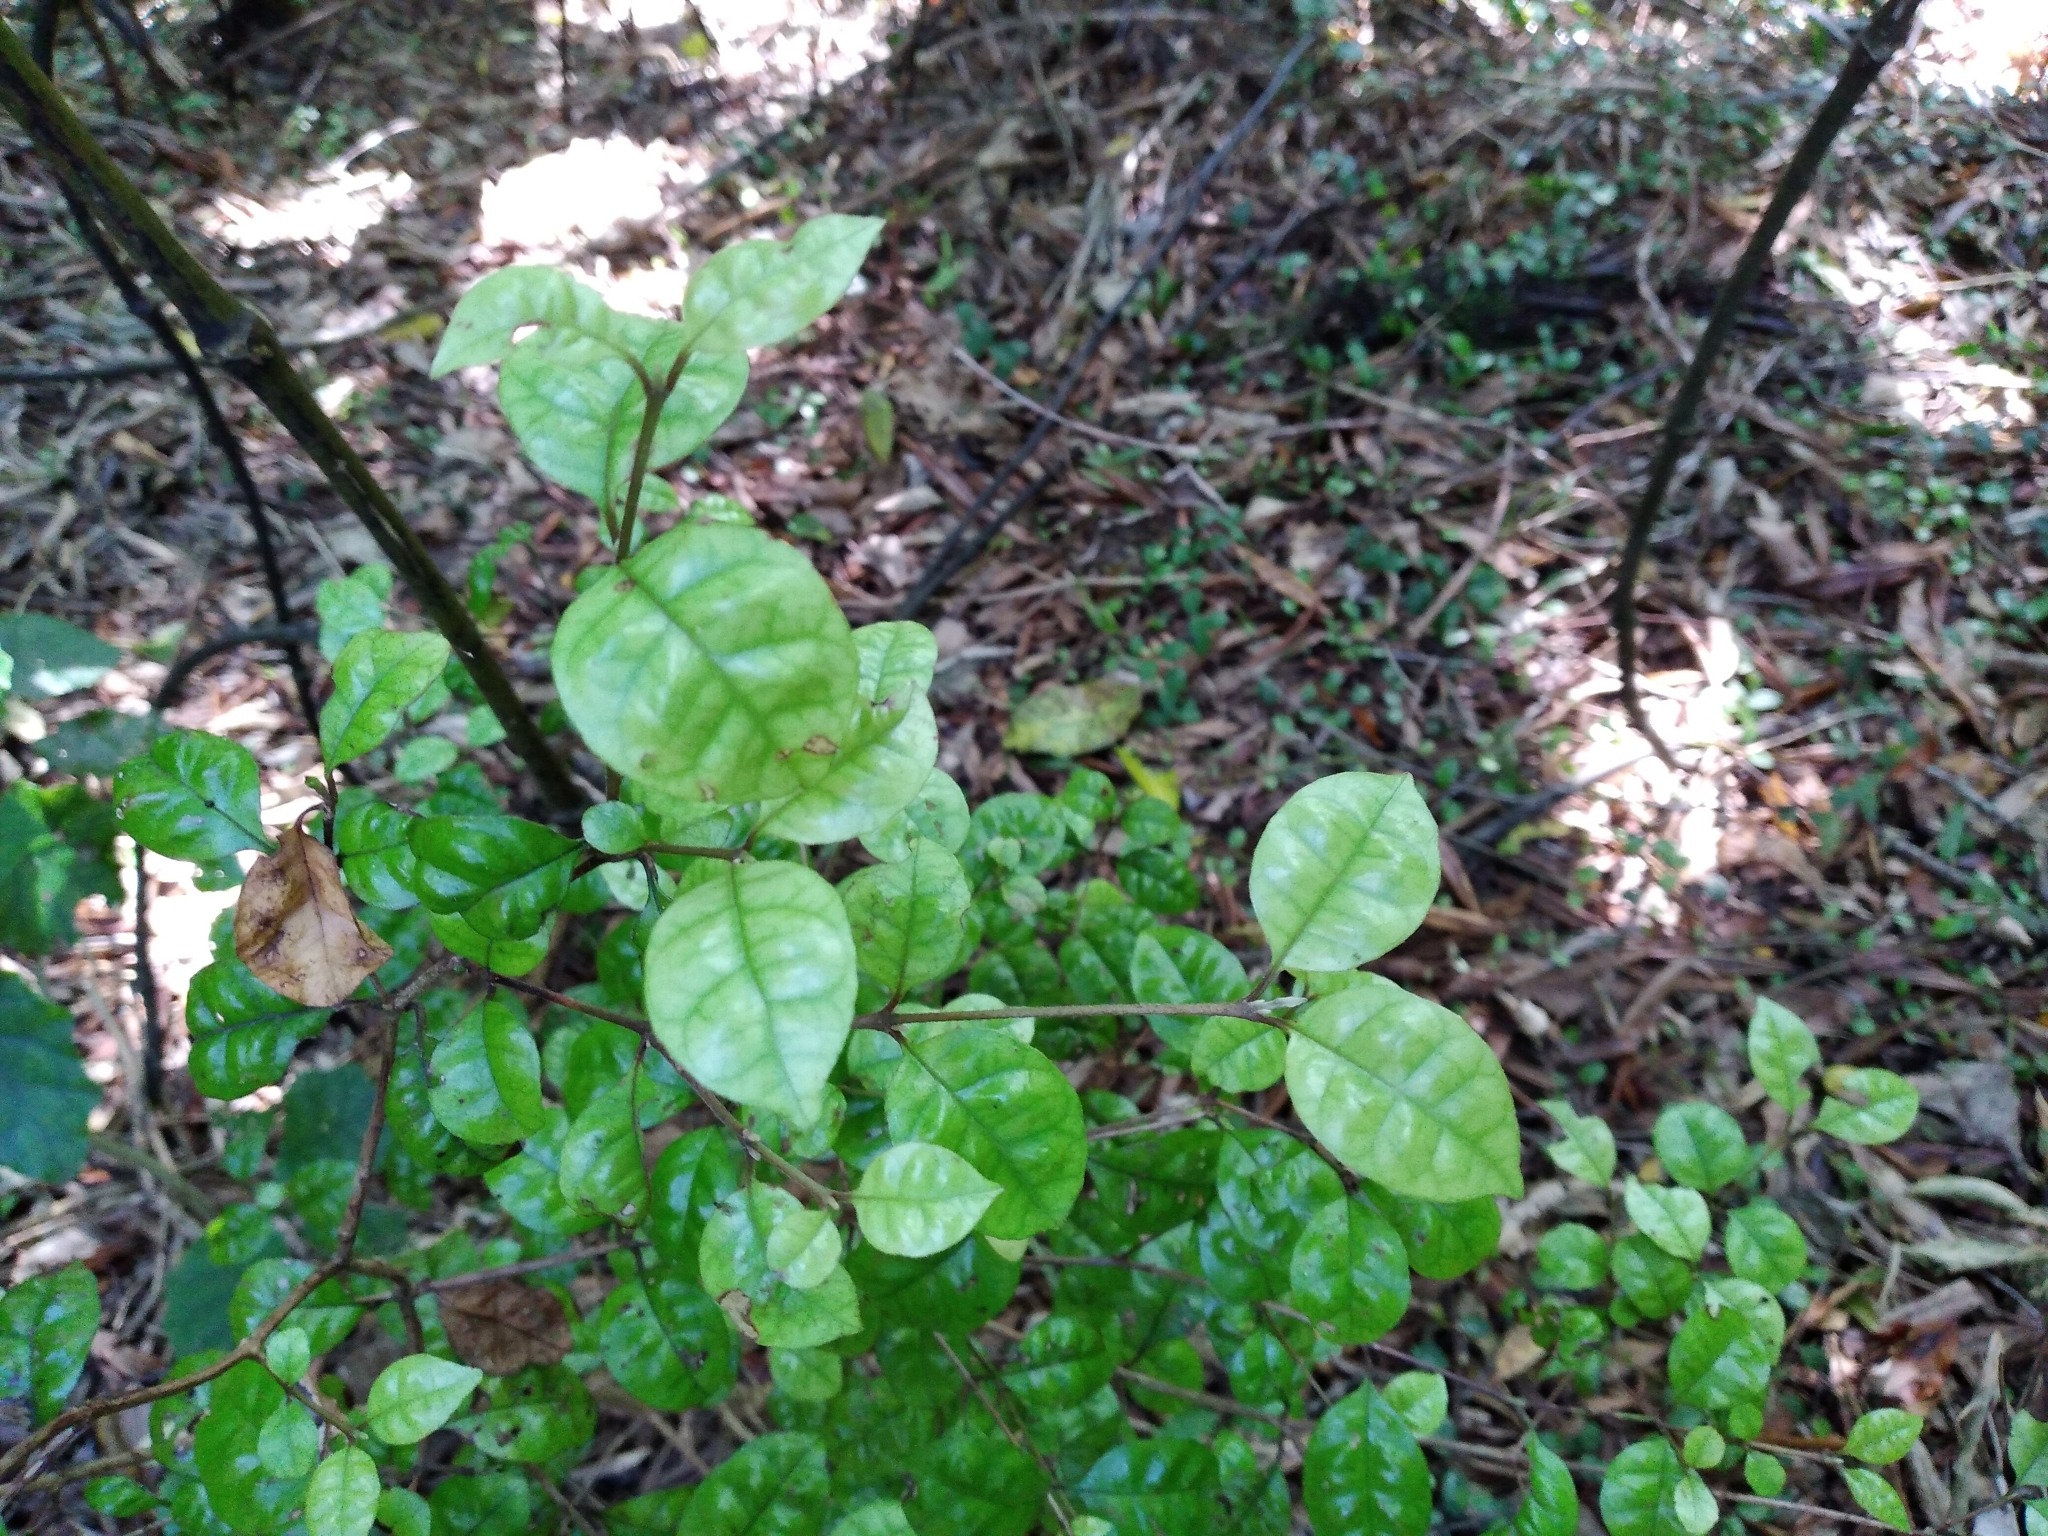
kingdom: Plantae
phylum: Tracheophyta
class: Magnoliopsida
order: Myrtales
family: Myrtaceae
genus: Lophomyrtus
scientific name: Lophomyrtus bullata
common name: Rama rama
